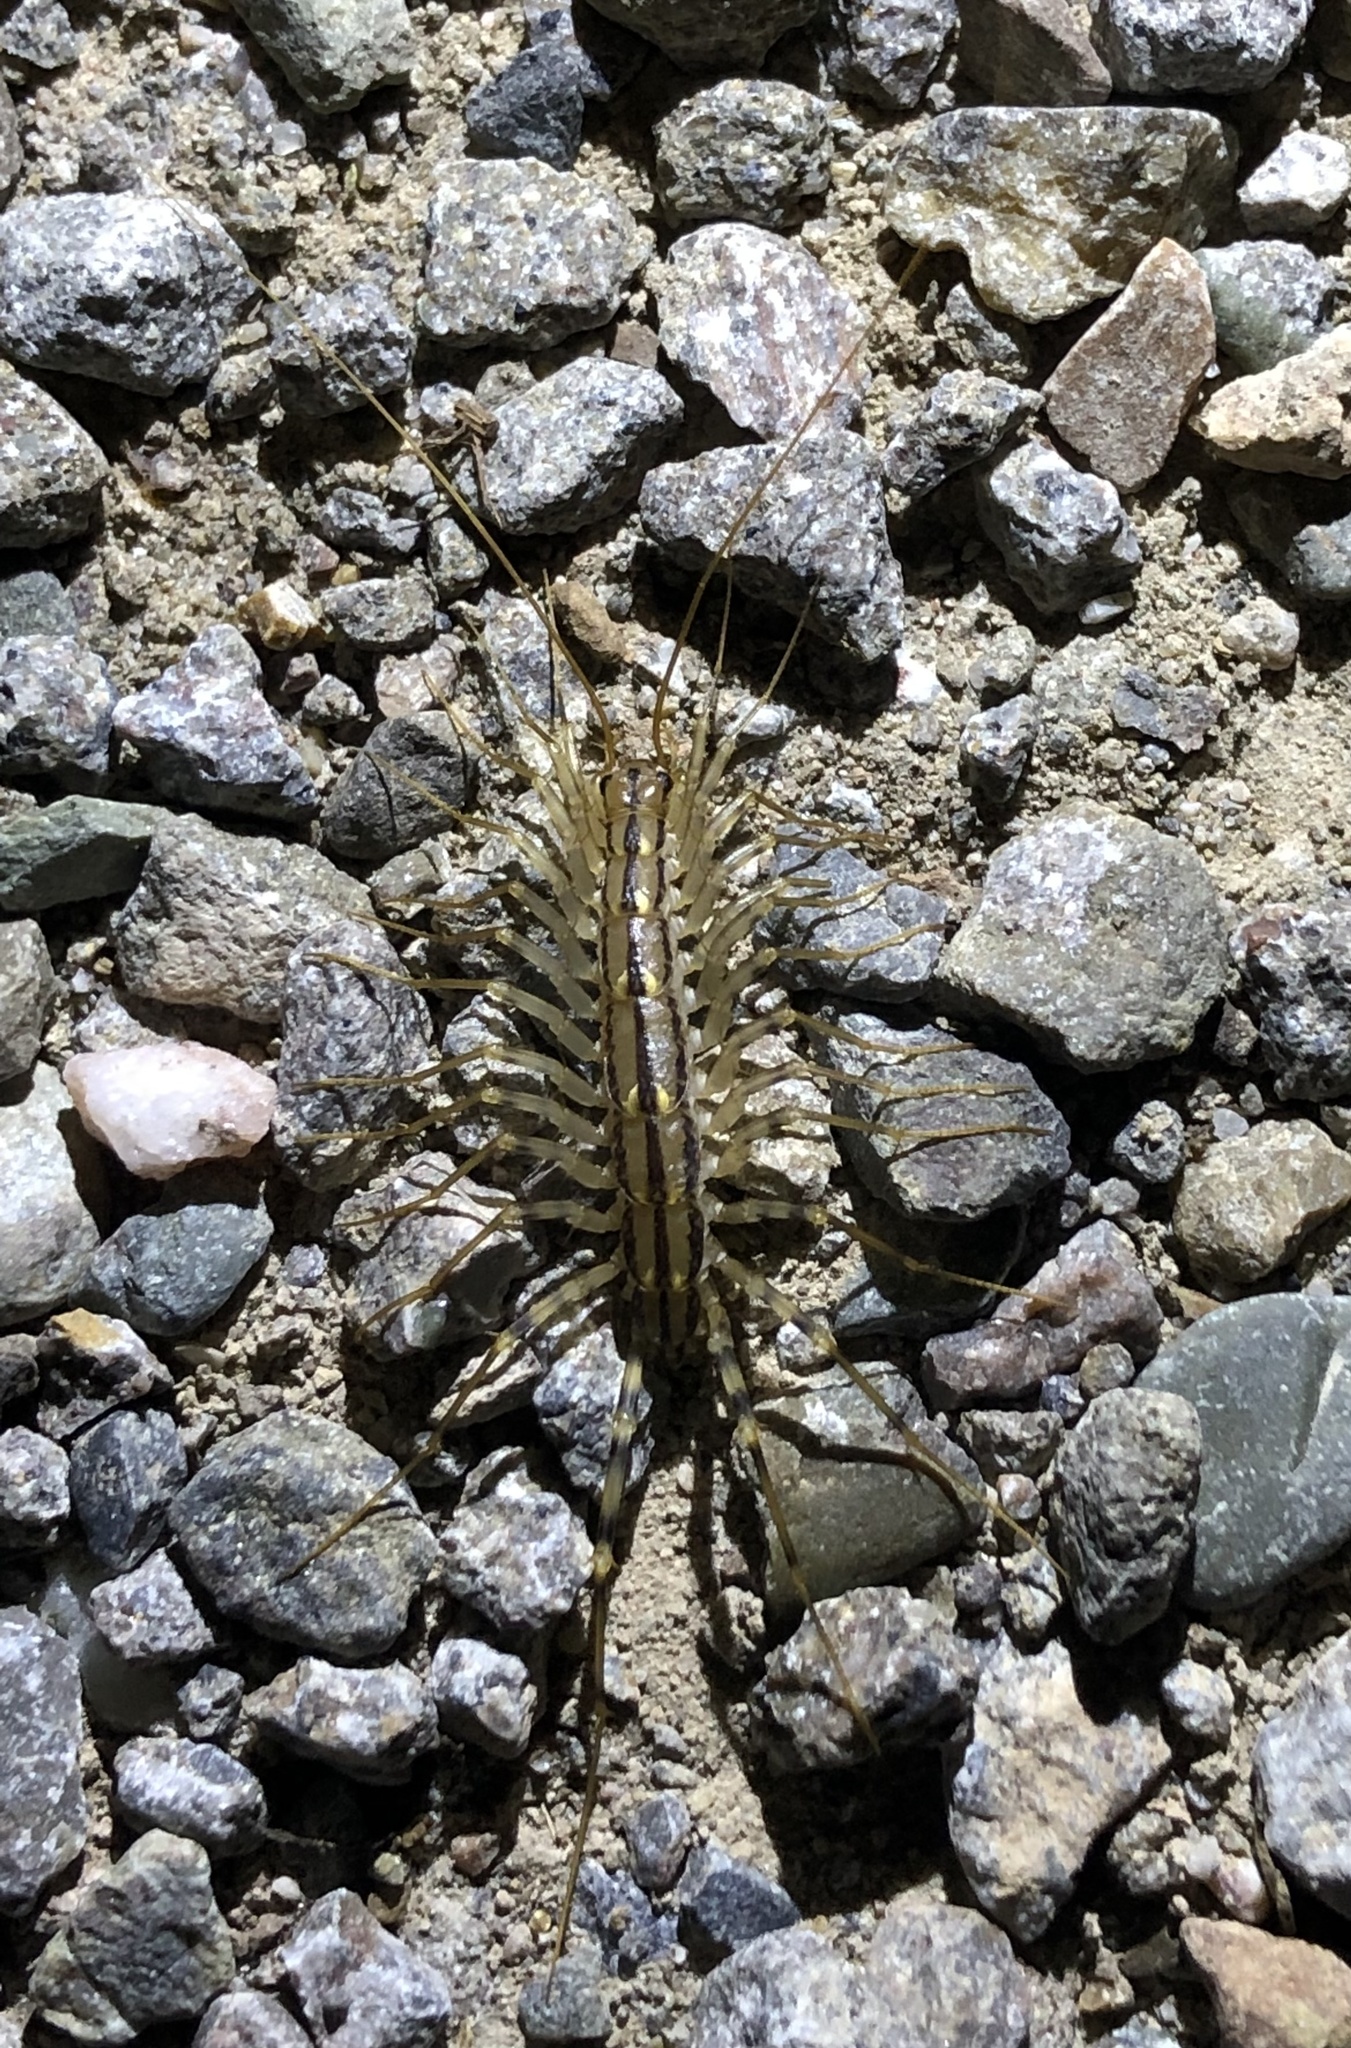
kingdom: Animalia
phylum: Arthropoda
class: Chilopoda
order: Scutigeromorpha
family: Scutigeridae
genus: Scutigera
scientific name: Scutigera coleoptrata
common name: House centipede
